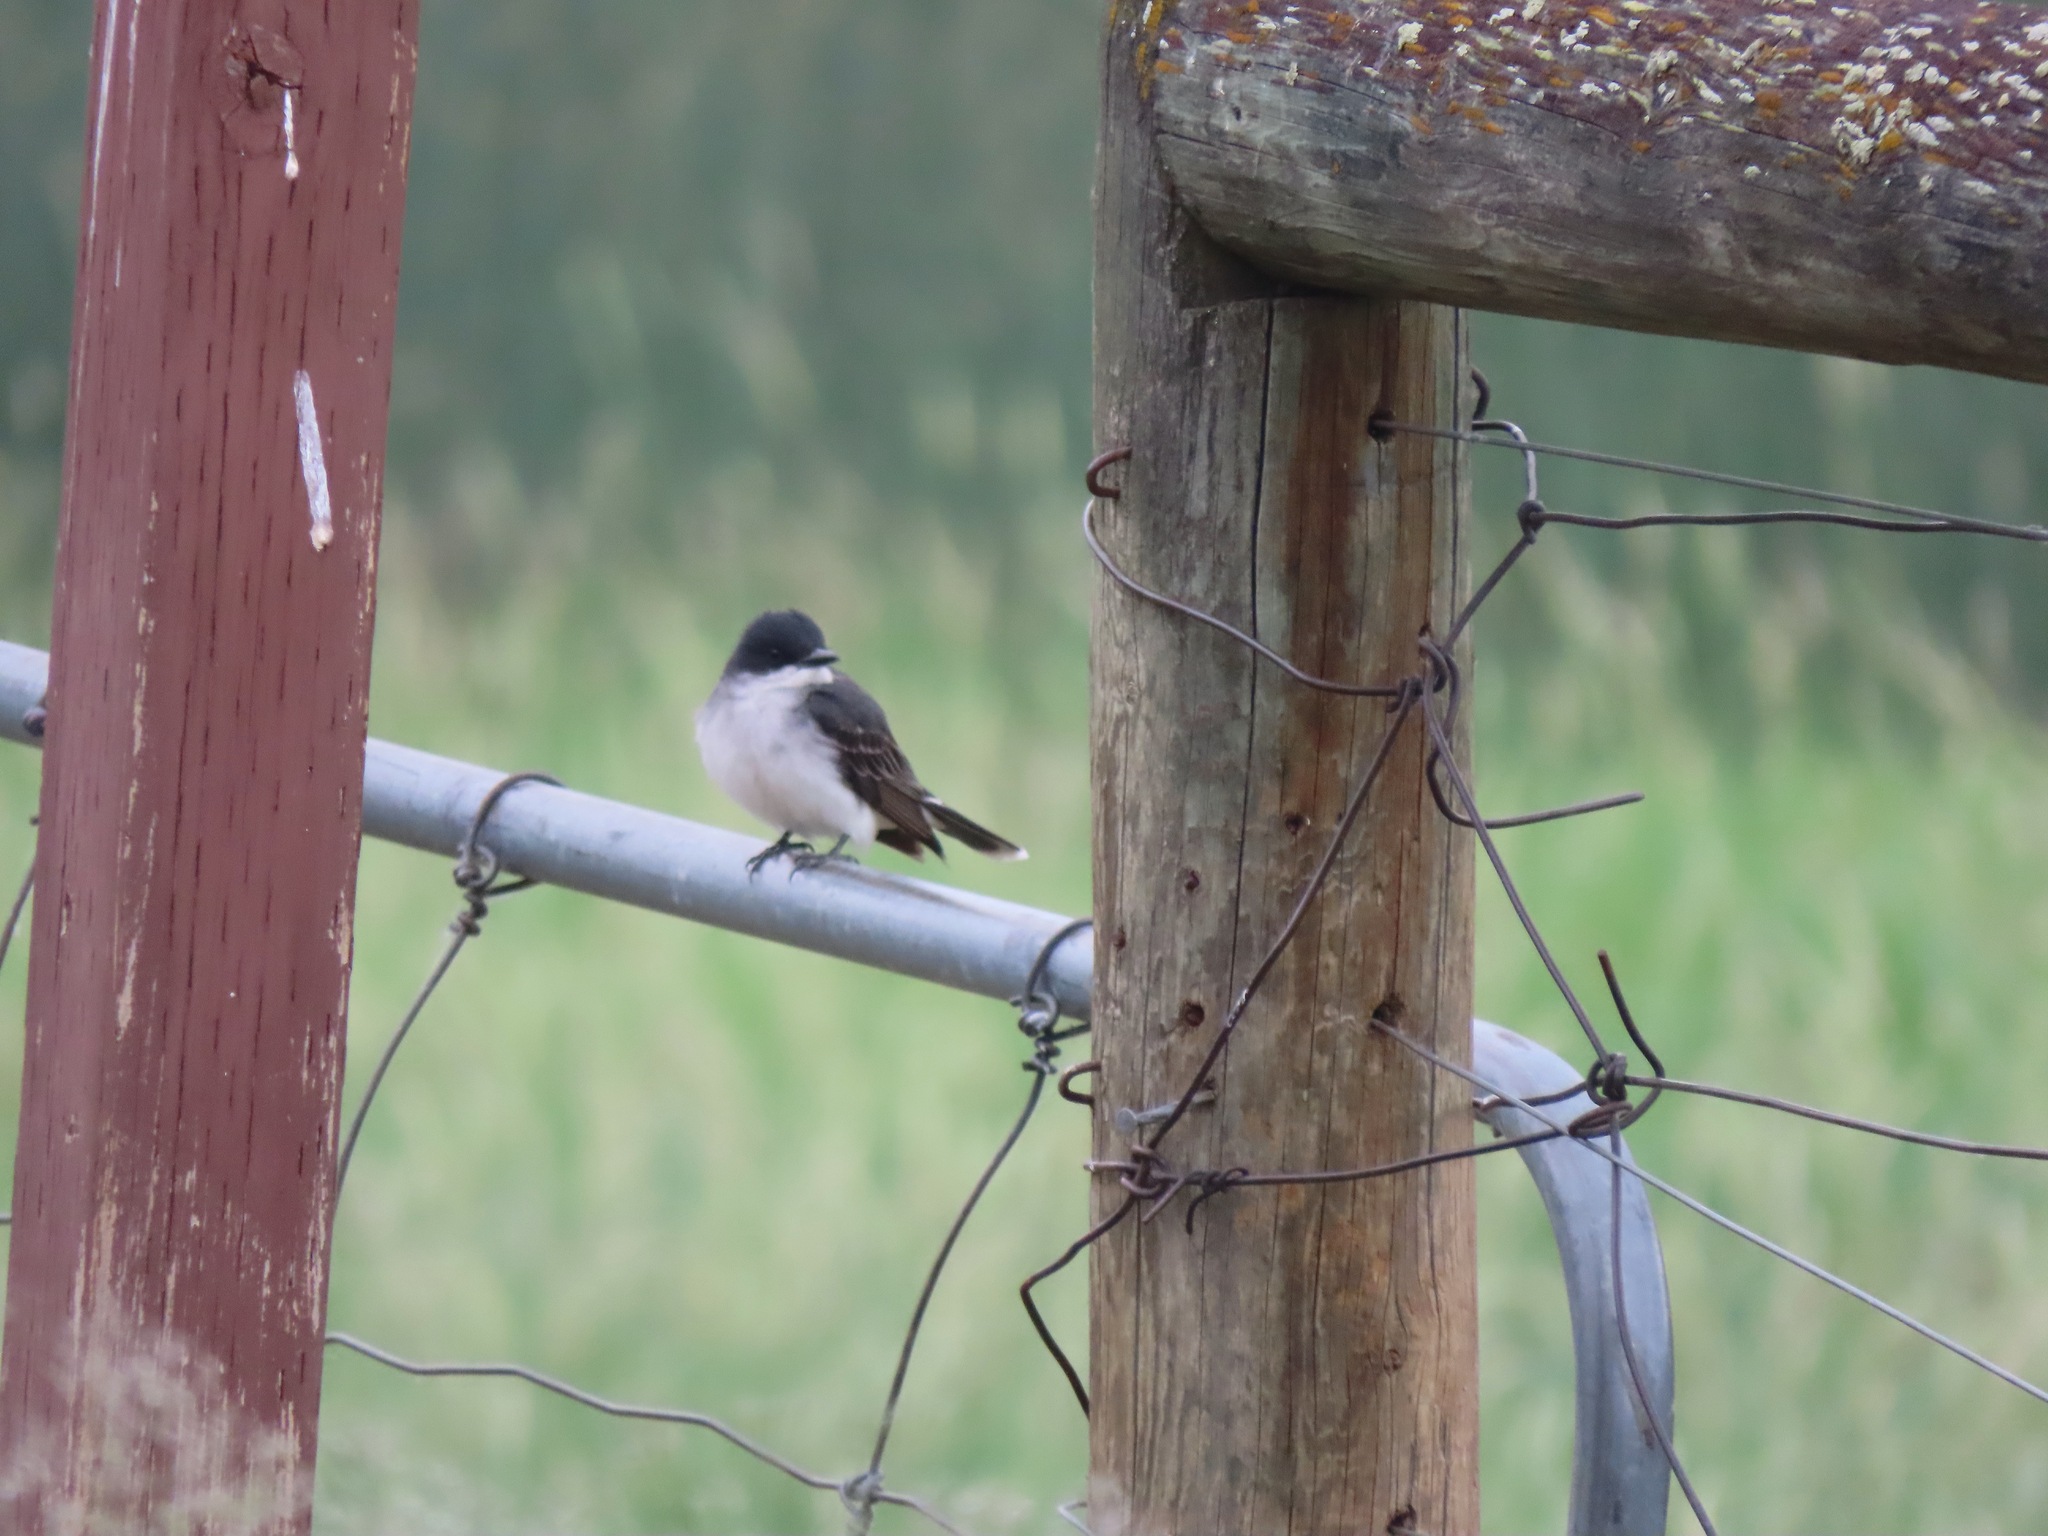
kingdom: Animalia
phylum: Chordata
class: Aves
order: Passeriformes
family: Tyrannidae
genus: Tyrannus
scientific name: Tyrannus tyrannus
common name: Eastern kingbird
